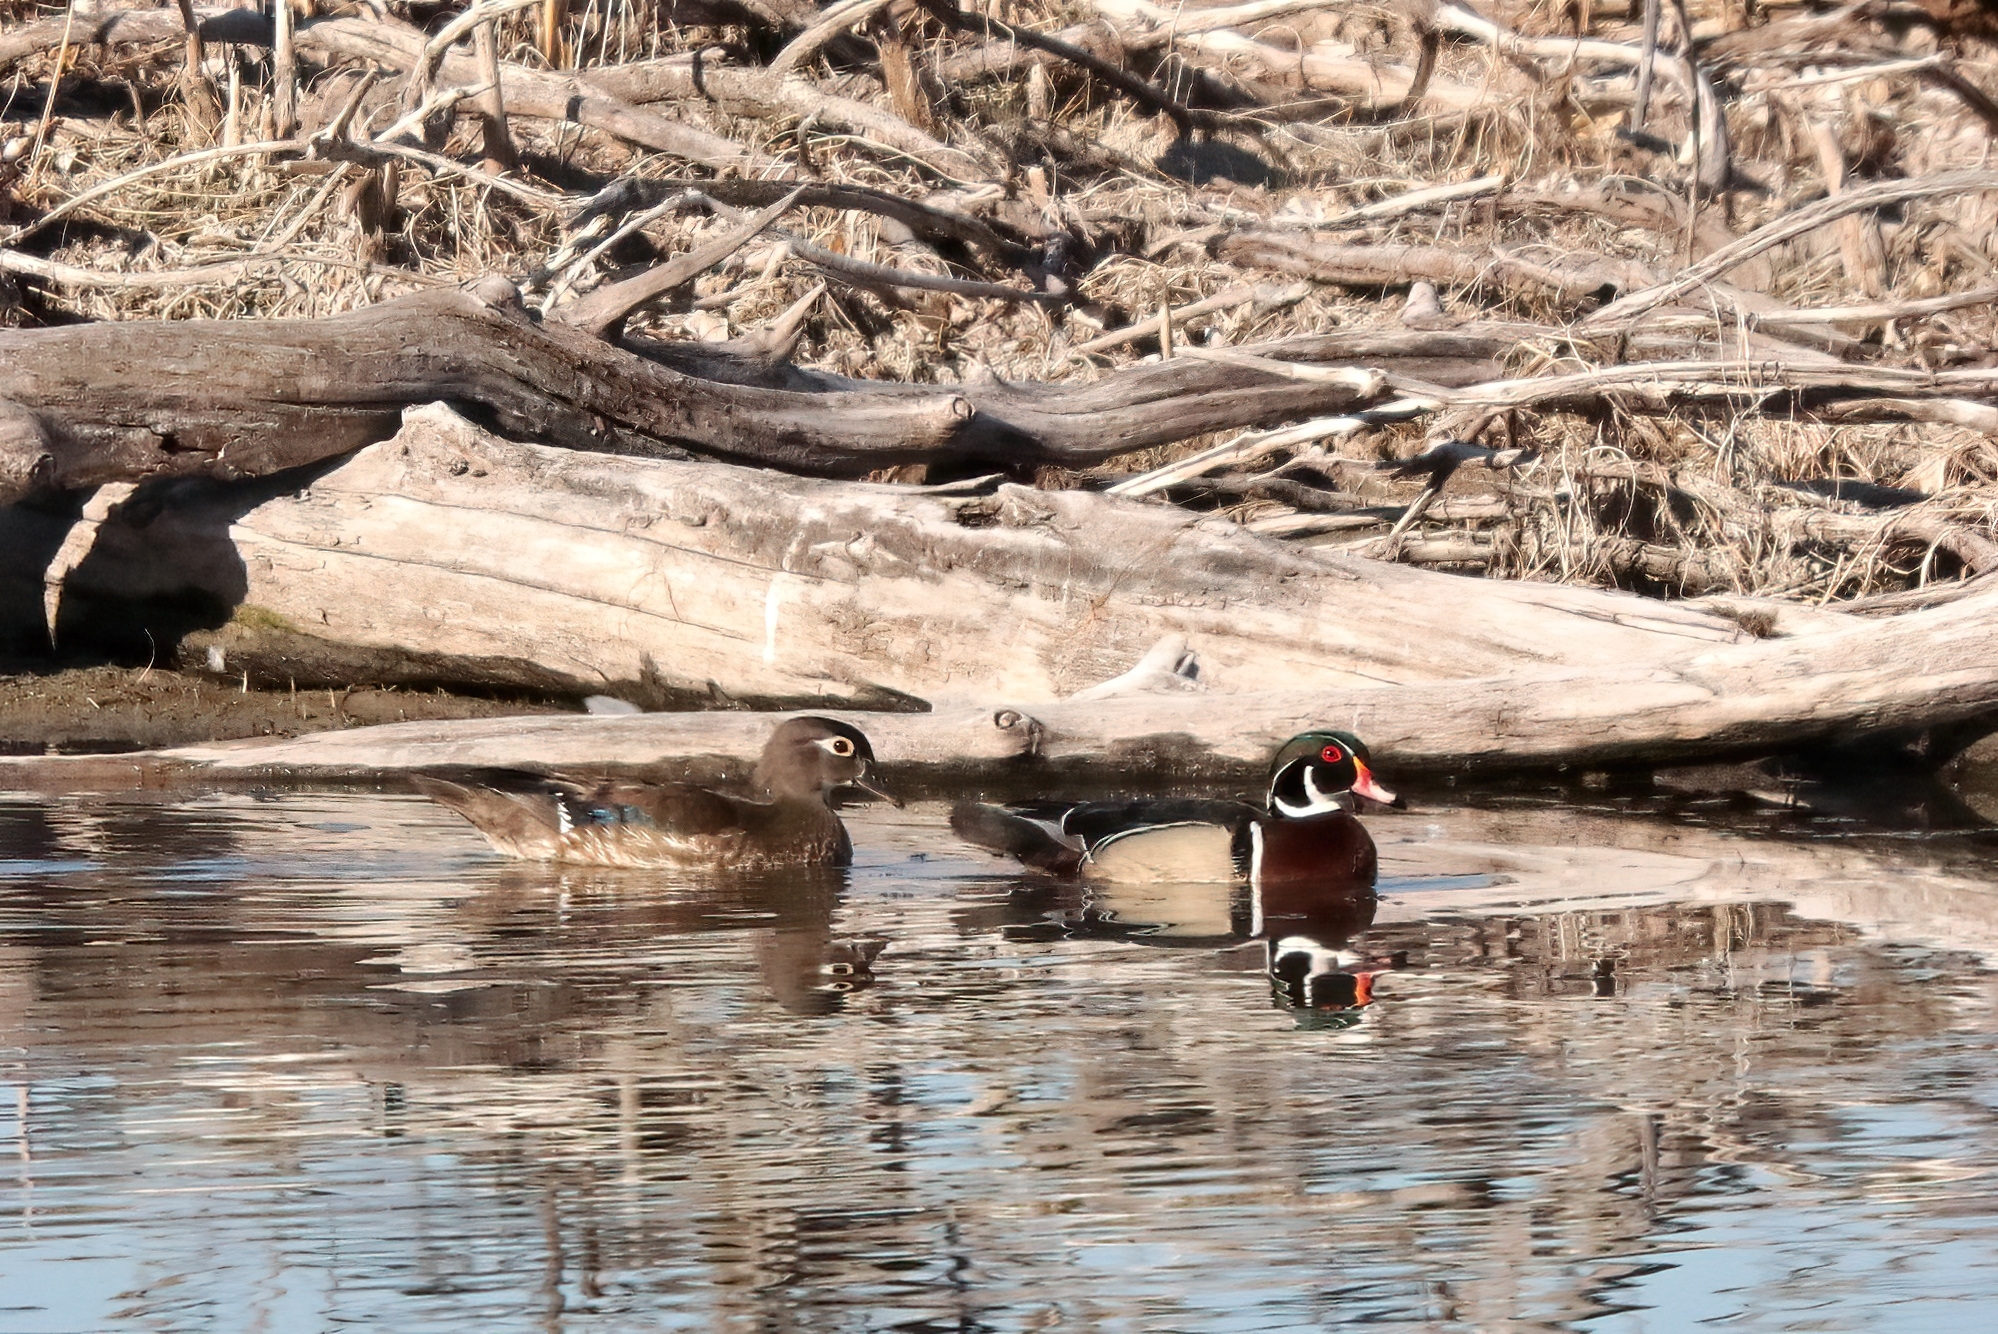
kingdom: Animalia
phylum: Chordata
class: Aves
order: Anseriformes
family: Anatidae
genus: Aix
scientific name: Aix sponsa
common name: Wood duck
